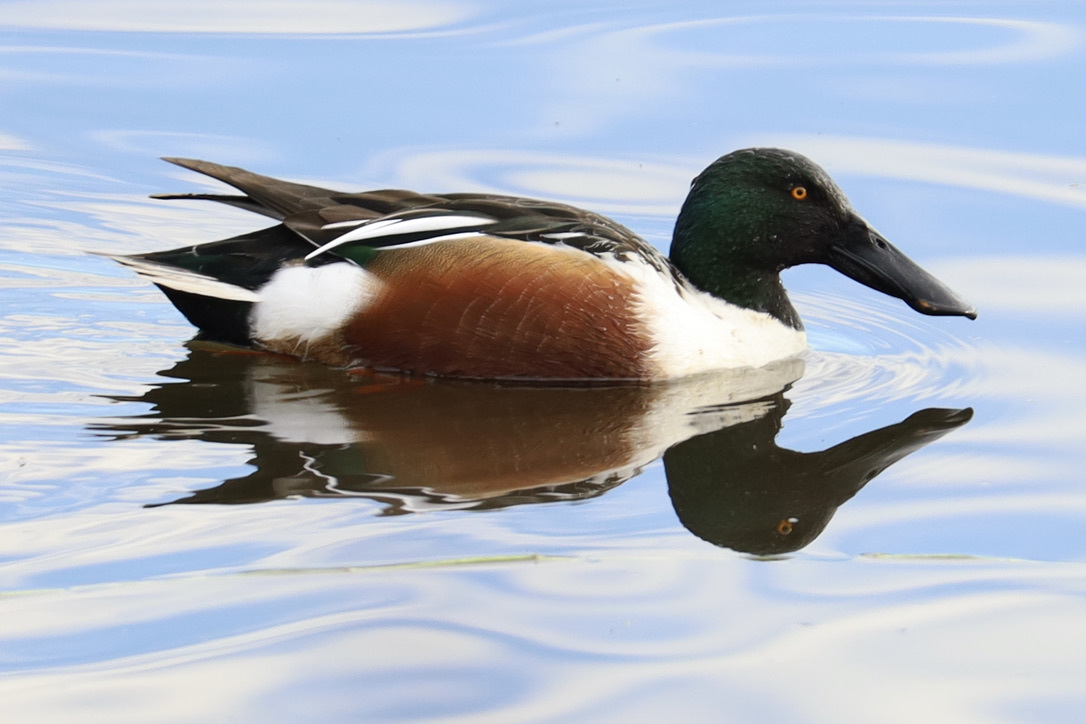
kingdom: Animalia
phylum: Chordata
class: Aves
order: Anseriformes
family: Anatidae
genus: Spatula
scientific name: Spatula clypeata
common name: Northern shoveler
